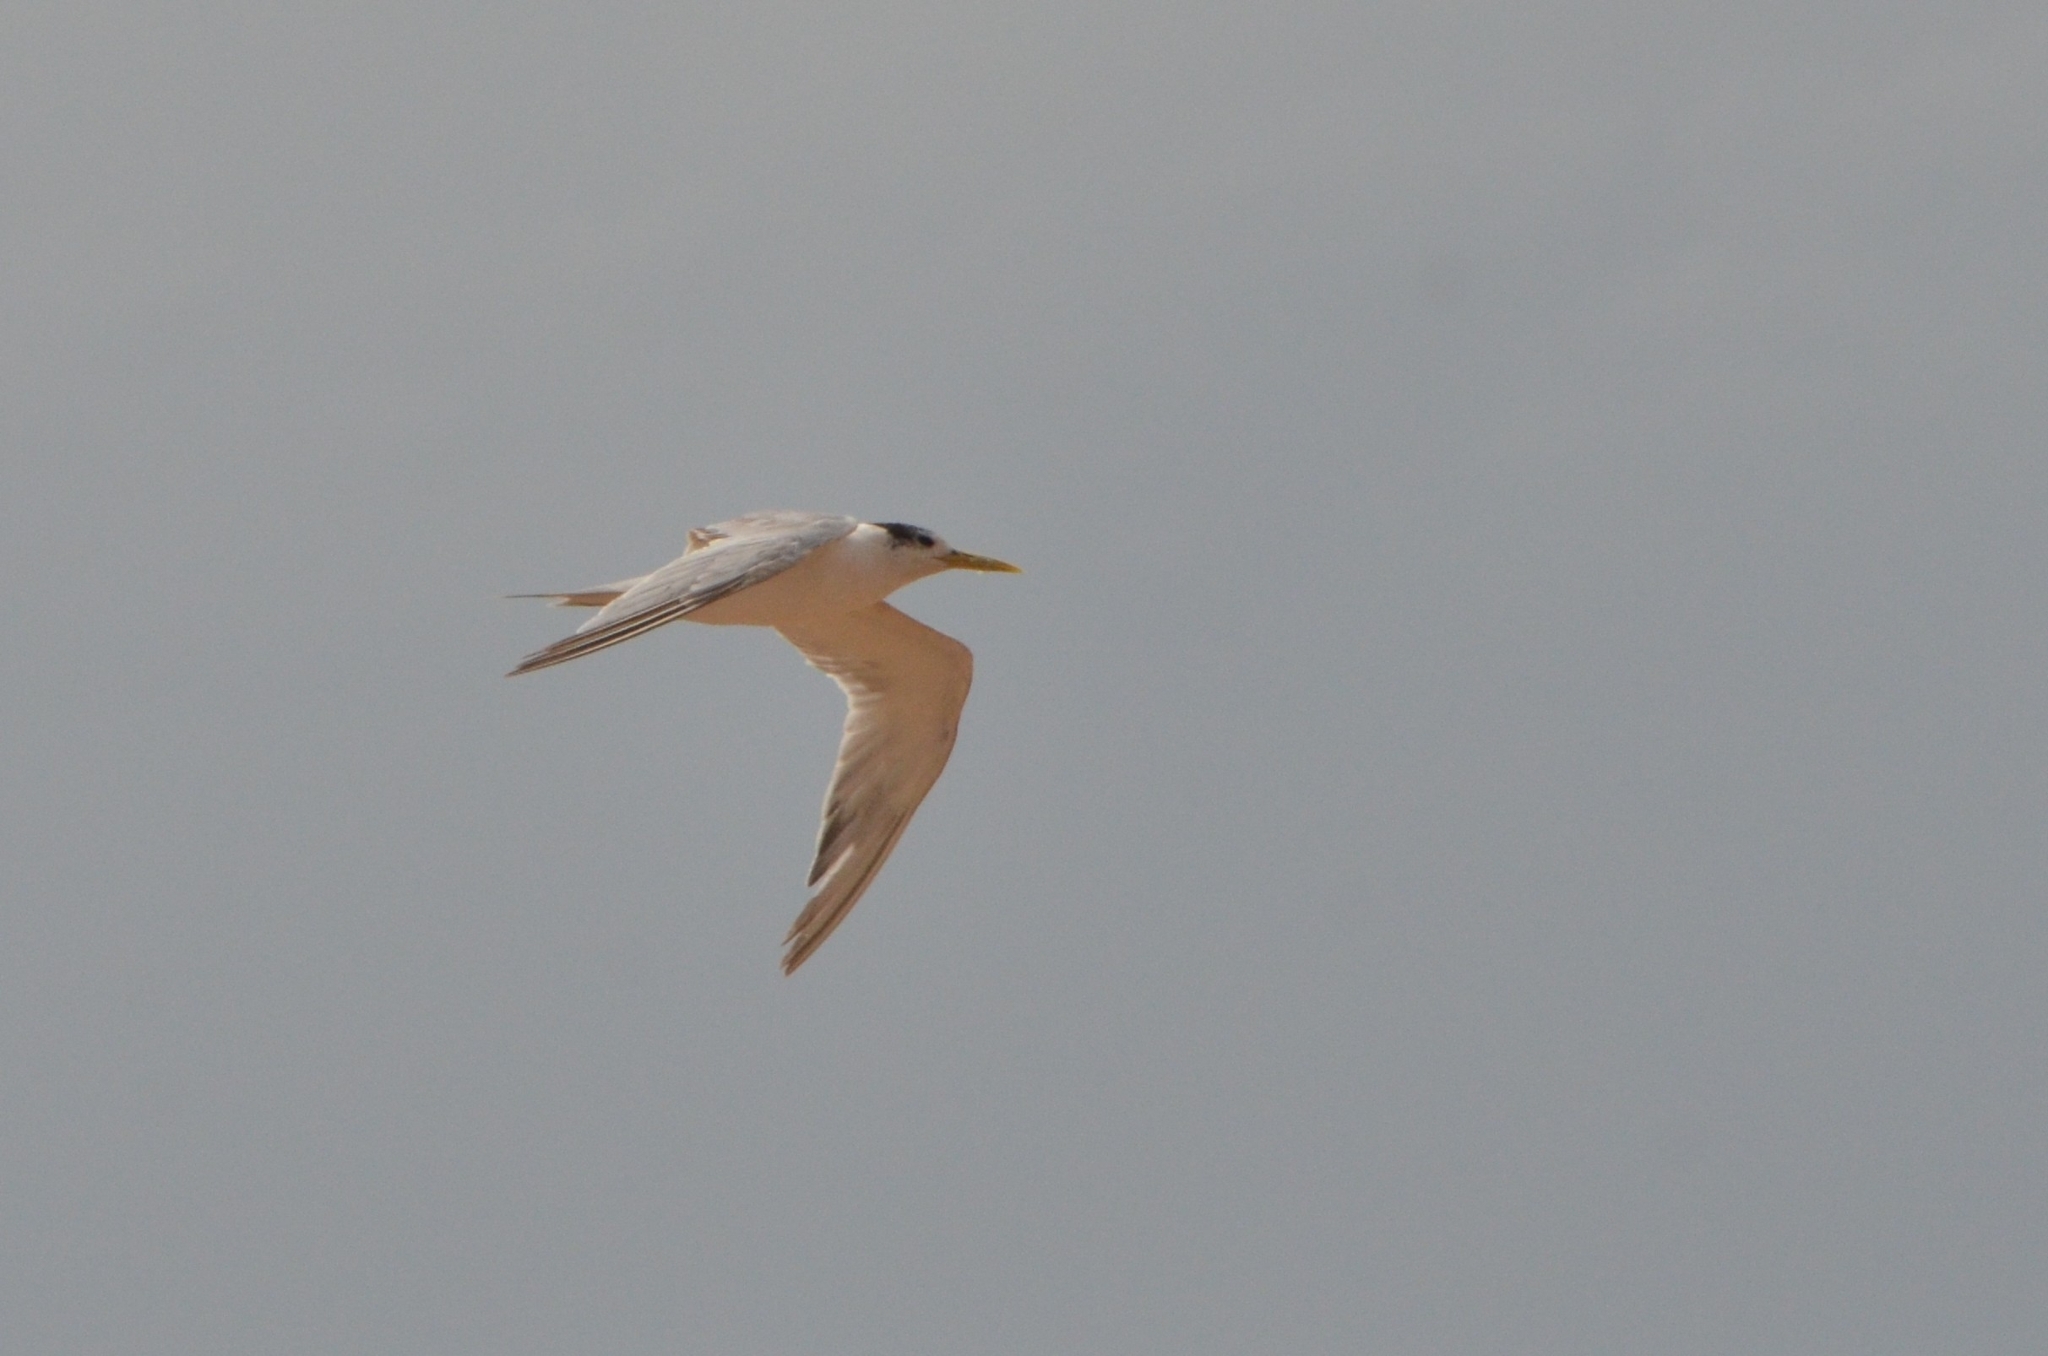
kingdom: Animalia
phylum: Chordata
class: Aves
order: Charadriiformes
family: Laridae
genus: Thalasseus
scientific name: Thalasseus bergii
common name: Greater crested tern
